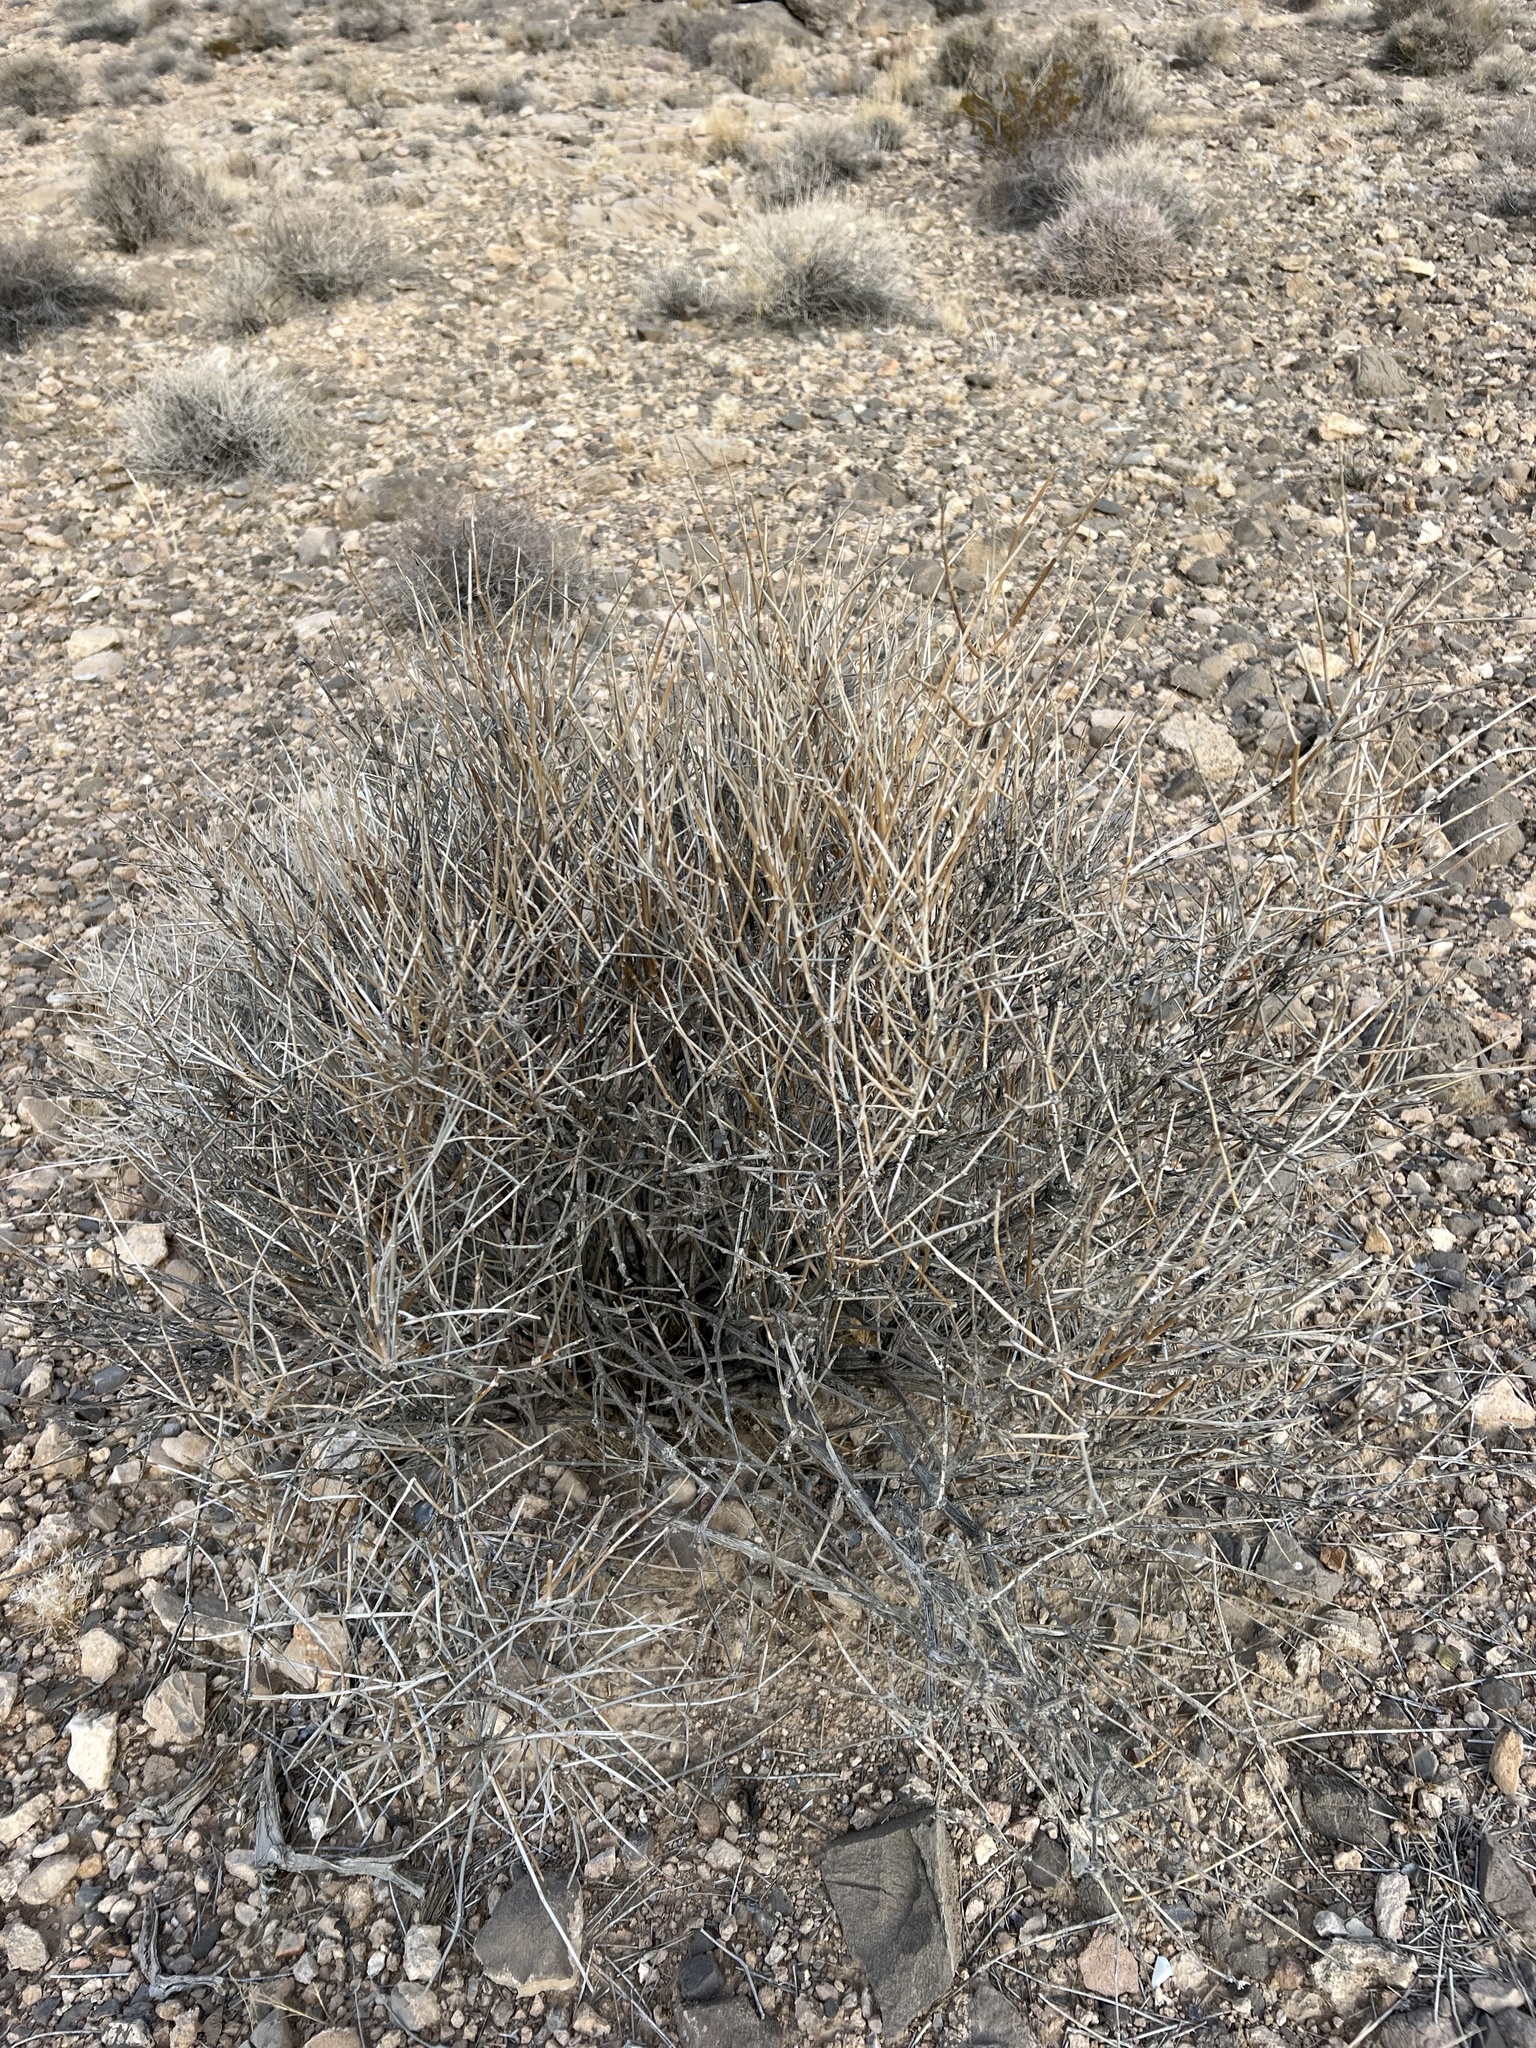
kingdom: Plantae
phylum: Tracheophyta
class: Gnetopsida
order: Ephedrales
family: Ephedraceae
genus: Ephedra
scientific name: Ephedra nevadensis
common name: Gray ephedra
